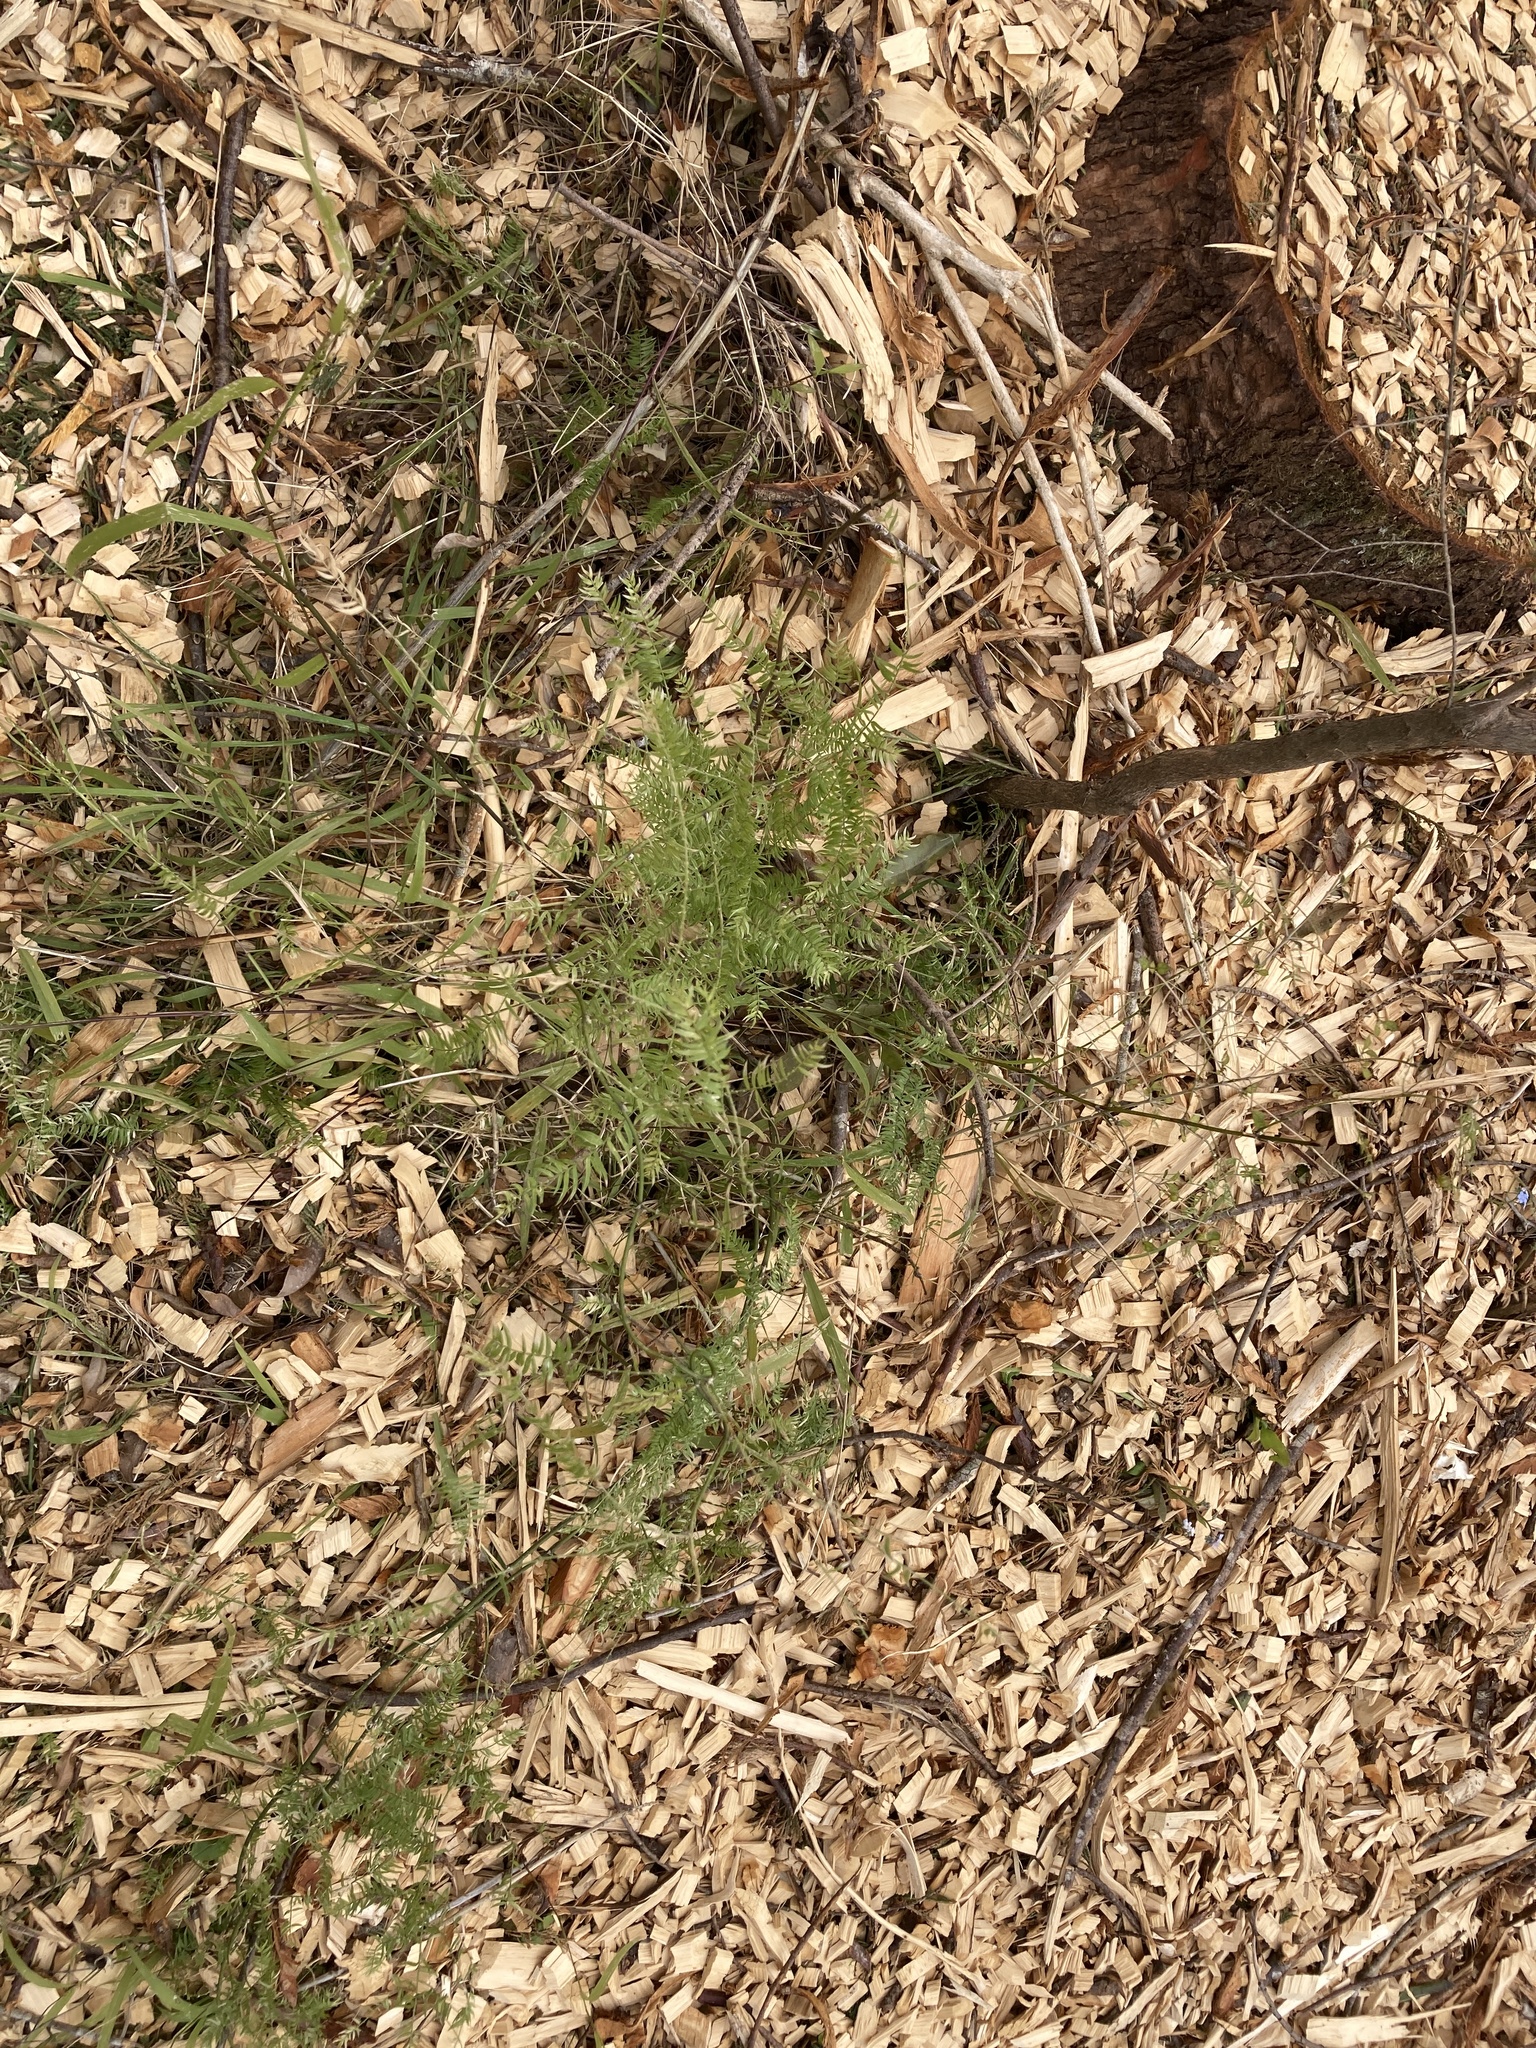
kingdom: Plantae
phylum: Tracheophyta
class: Liliopsida
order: Asparagales
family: Asparagaceae
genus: Asparagus
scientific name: Asparagus scandens
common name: Asparagus-fern
